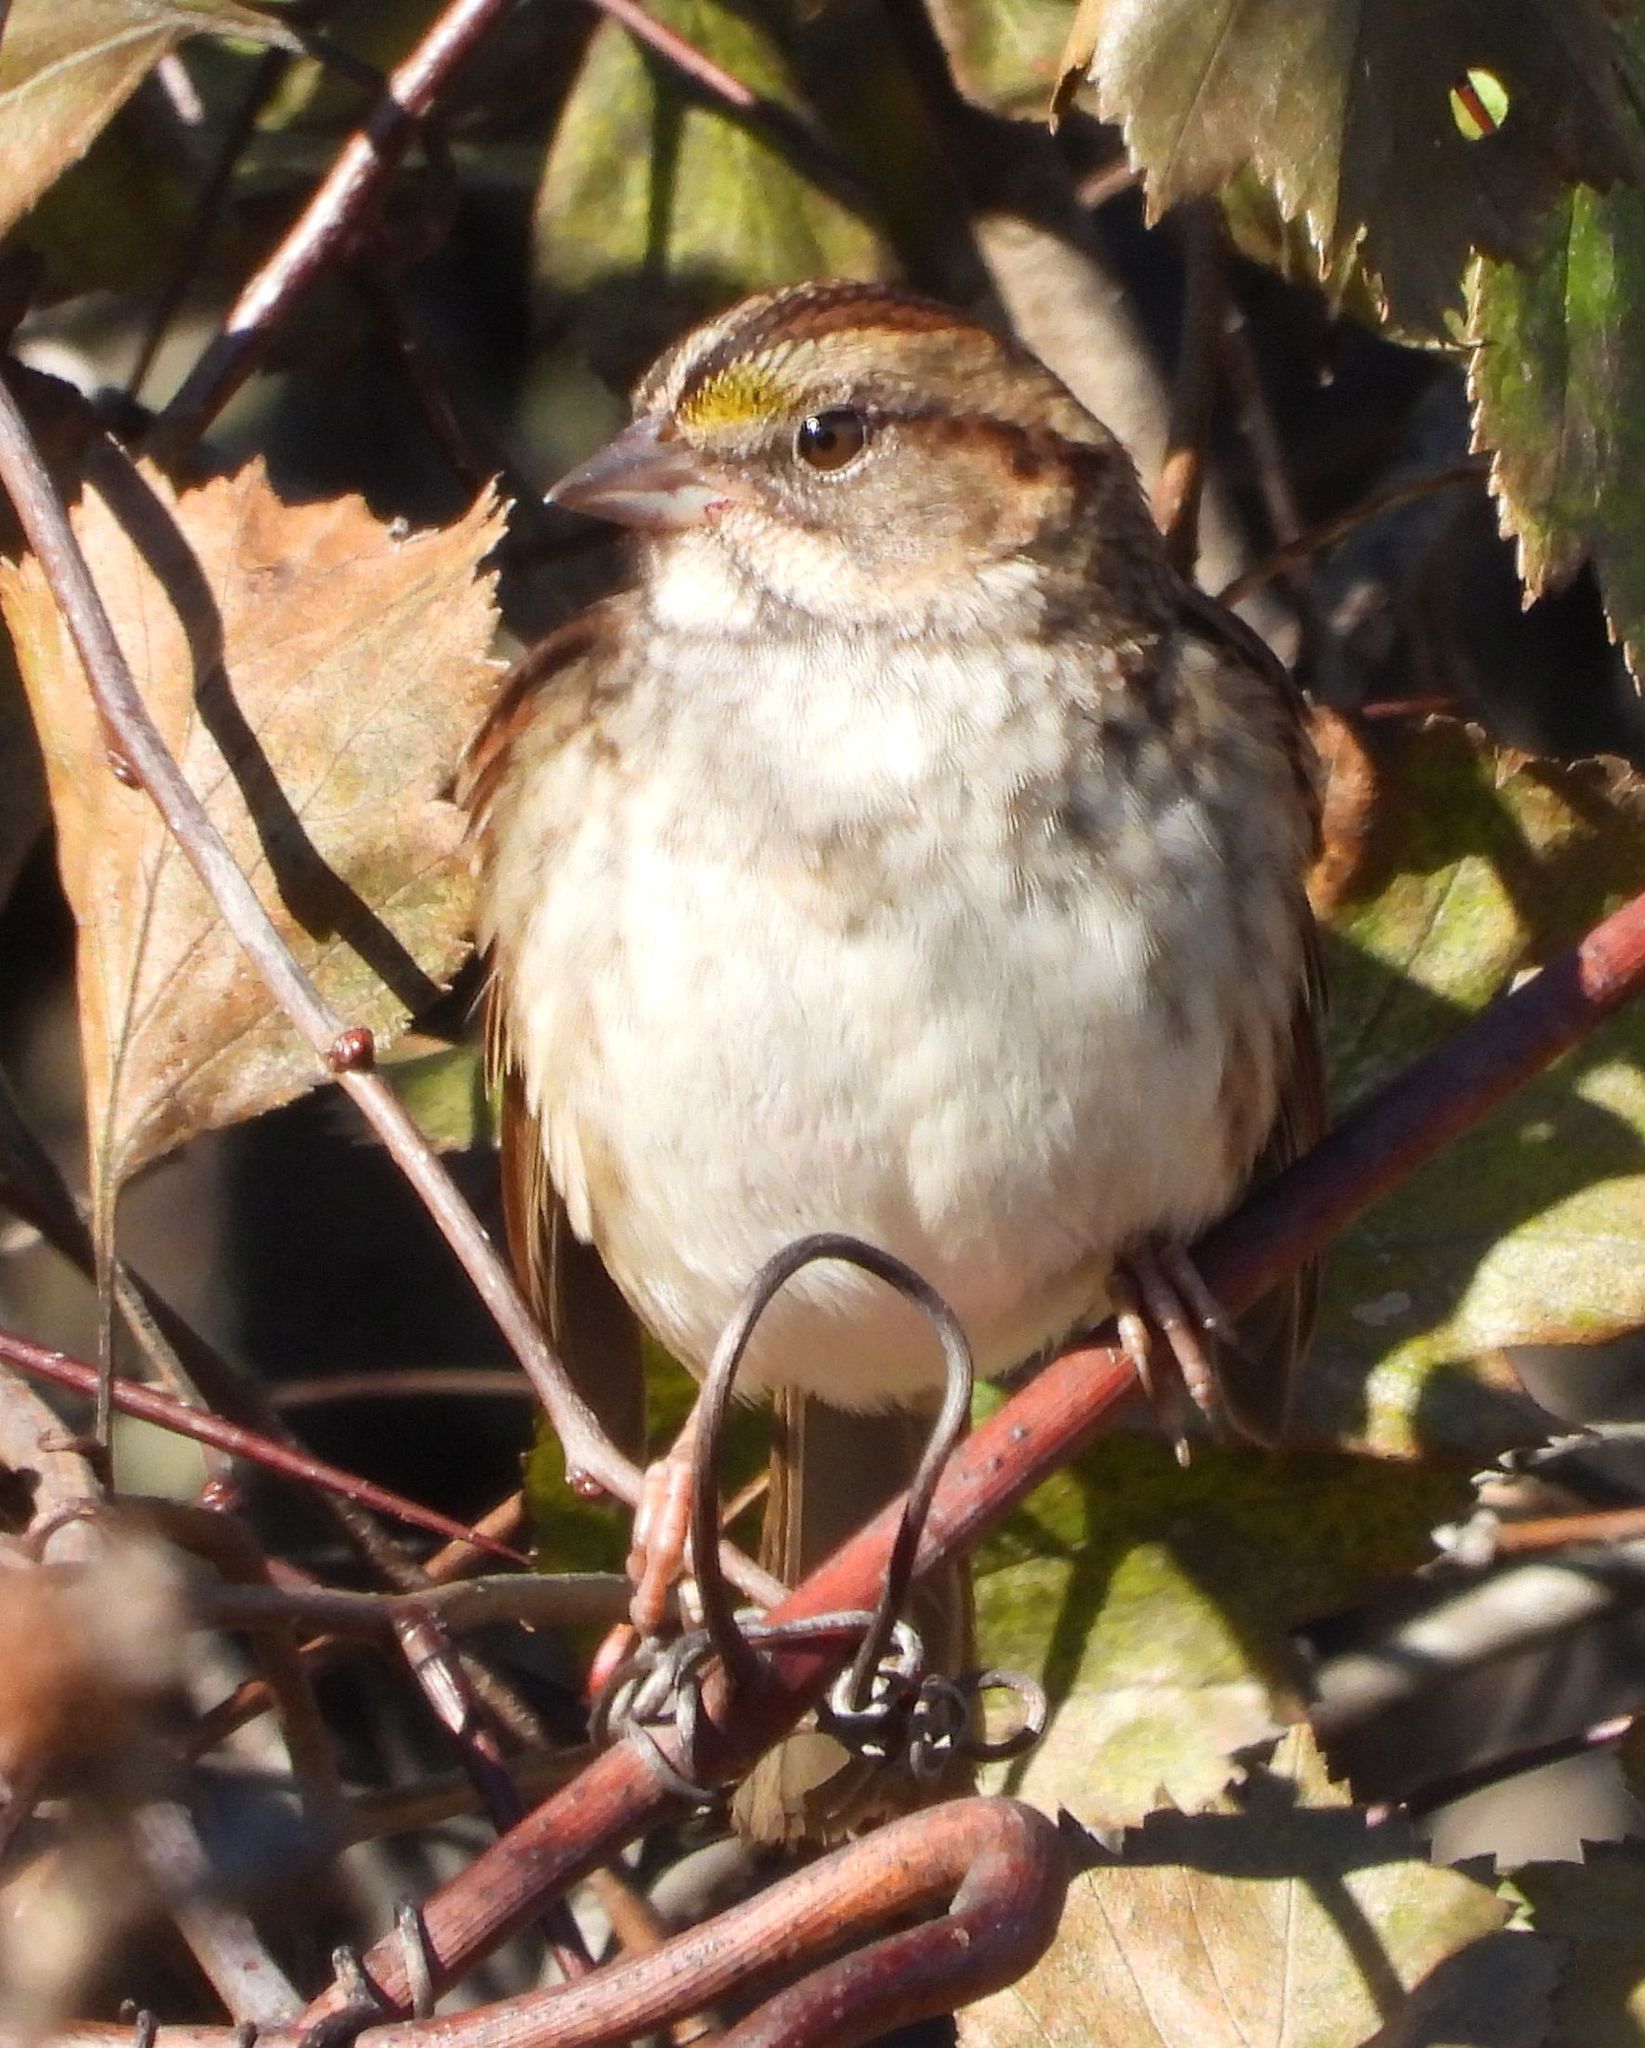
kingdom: Animalia
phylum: Chordata
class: Aves
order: Passeriformes
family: Passerellidae
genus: Zonotrichia
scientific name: Zonotrichia albicollis
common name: White-throated sparrow
